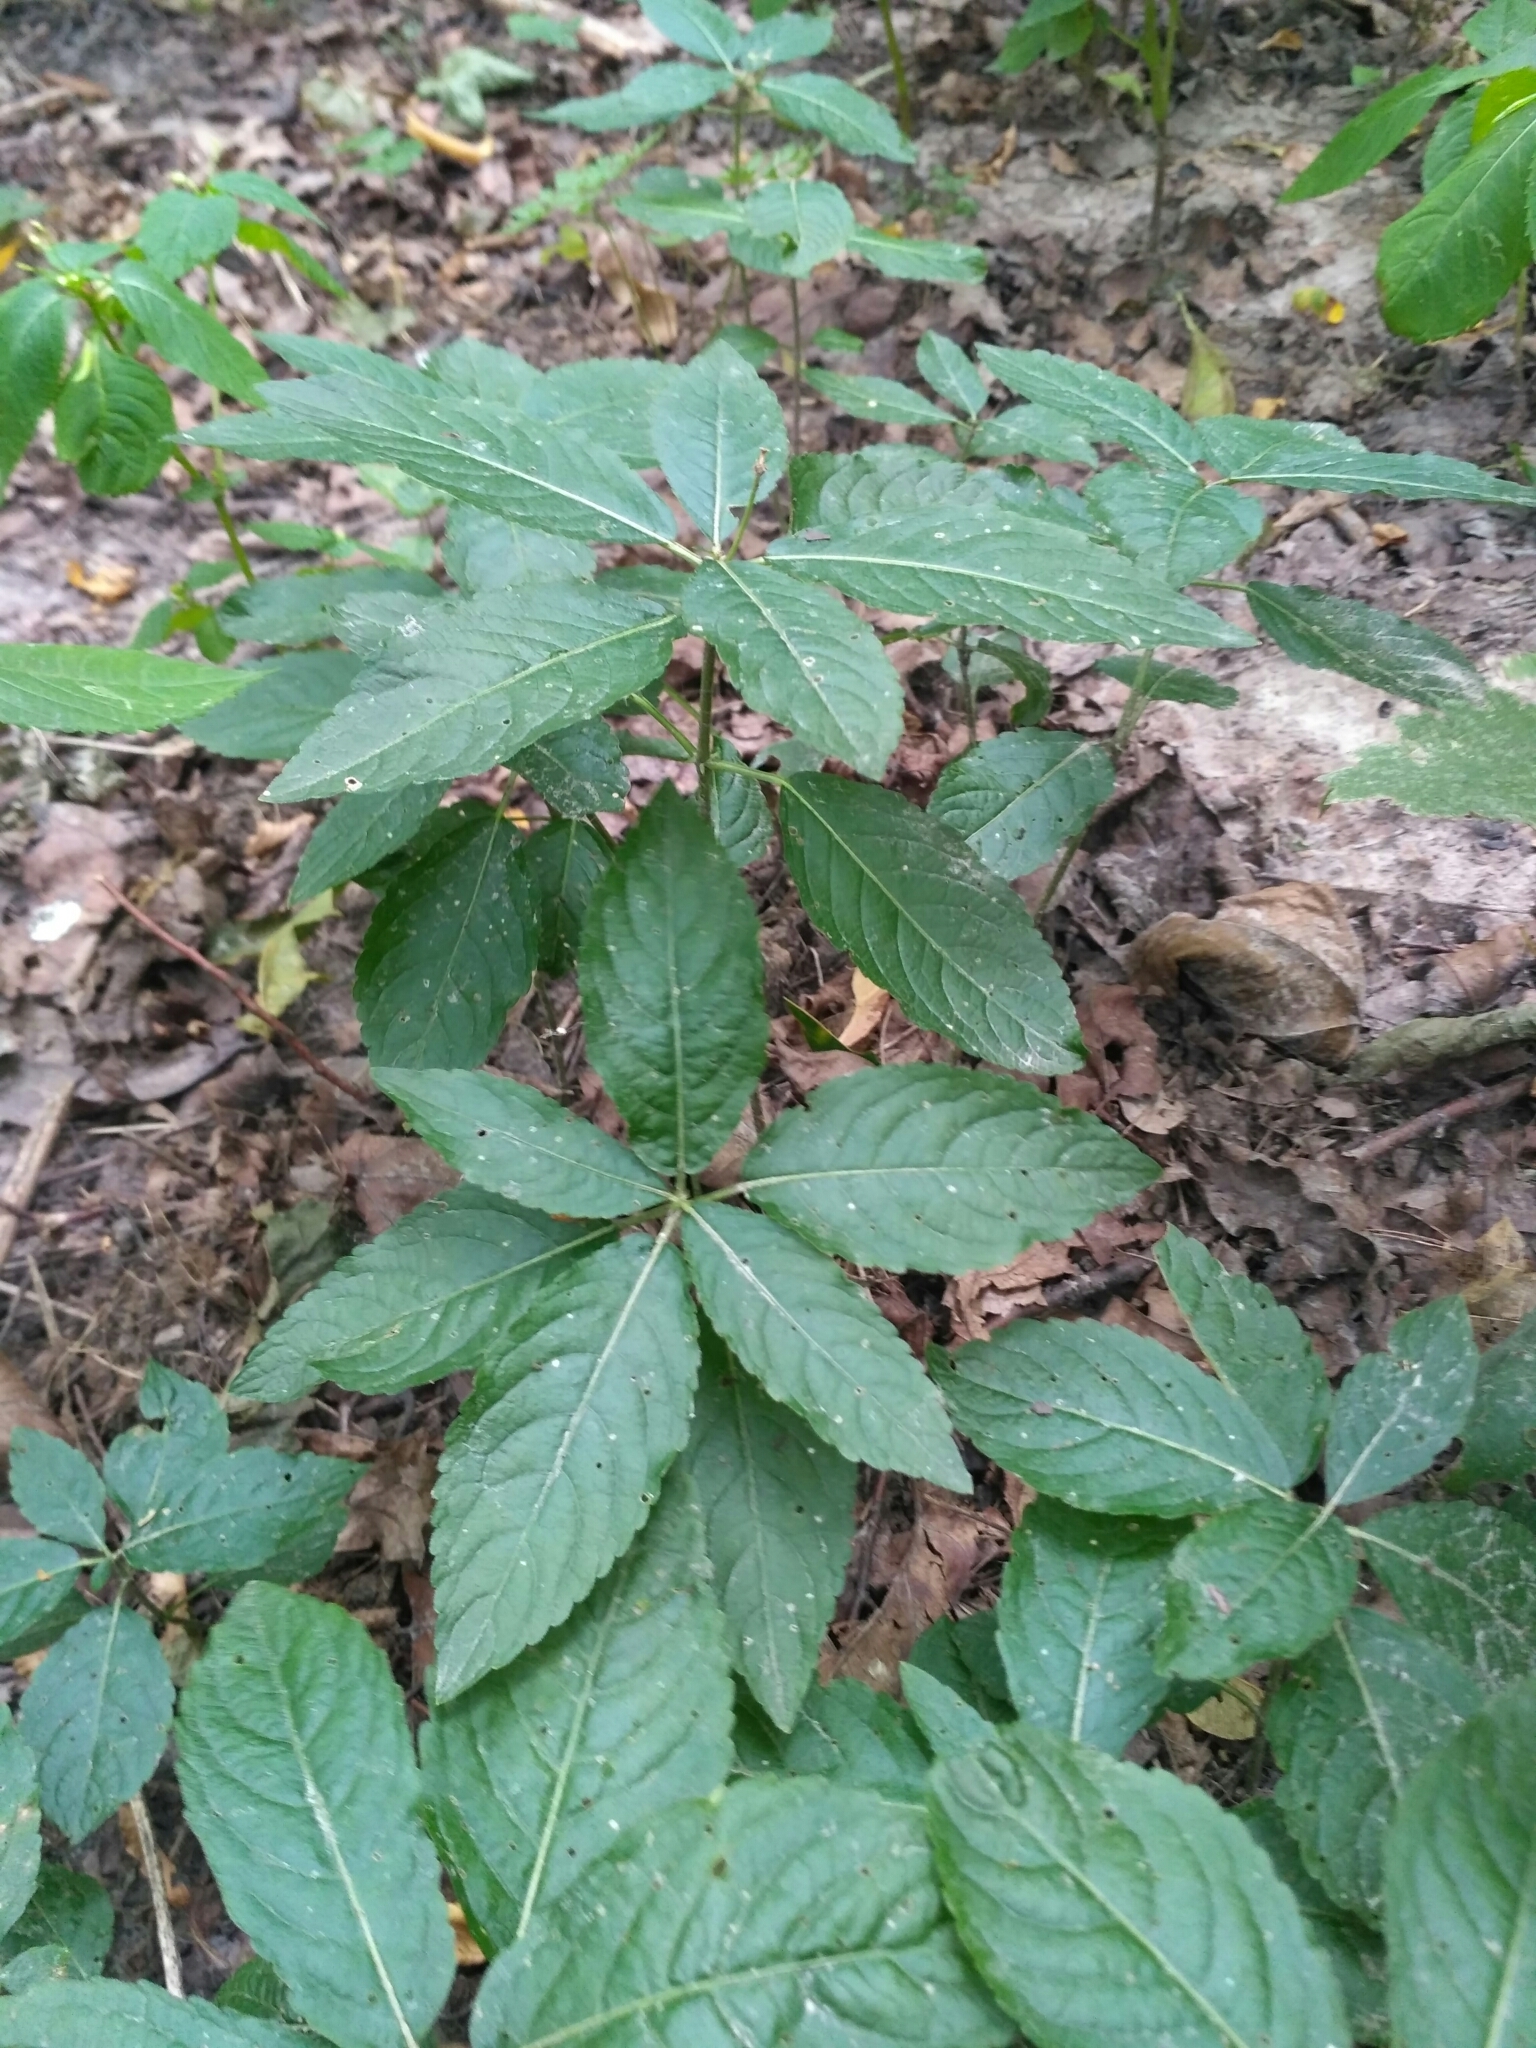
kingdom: Plantae
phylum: Tracheophyta
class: Magnoliopsida
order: Malpighiales
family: Euphorbiaceae
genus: Mercurialis
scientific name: Mercurialis perennis
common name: Dog mercury
